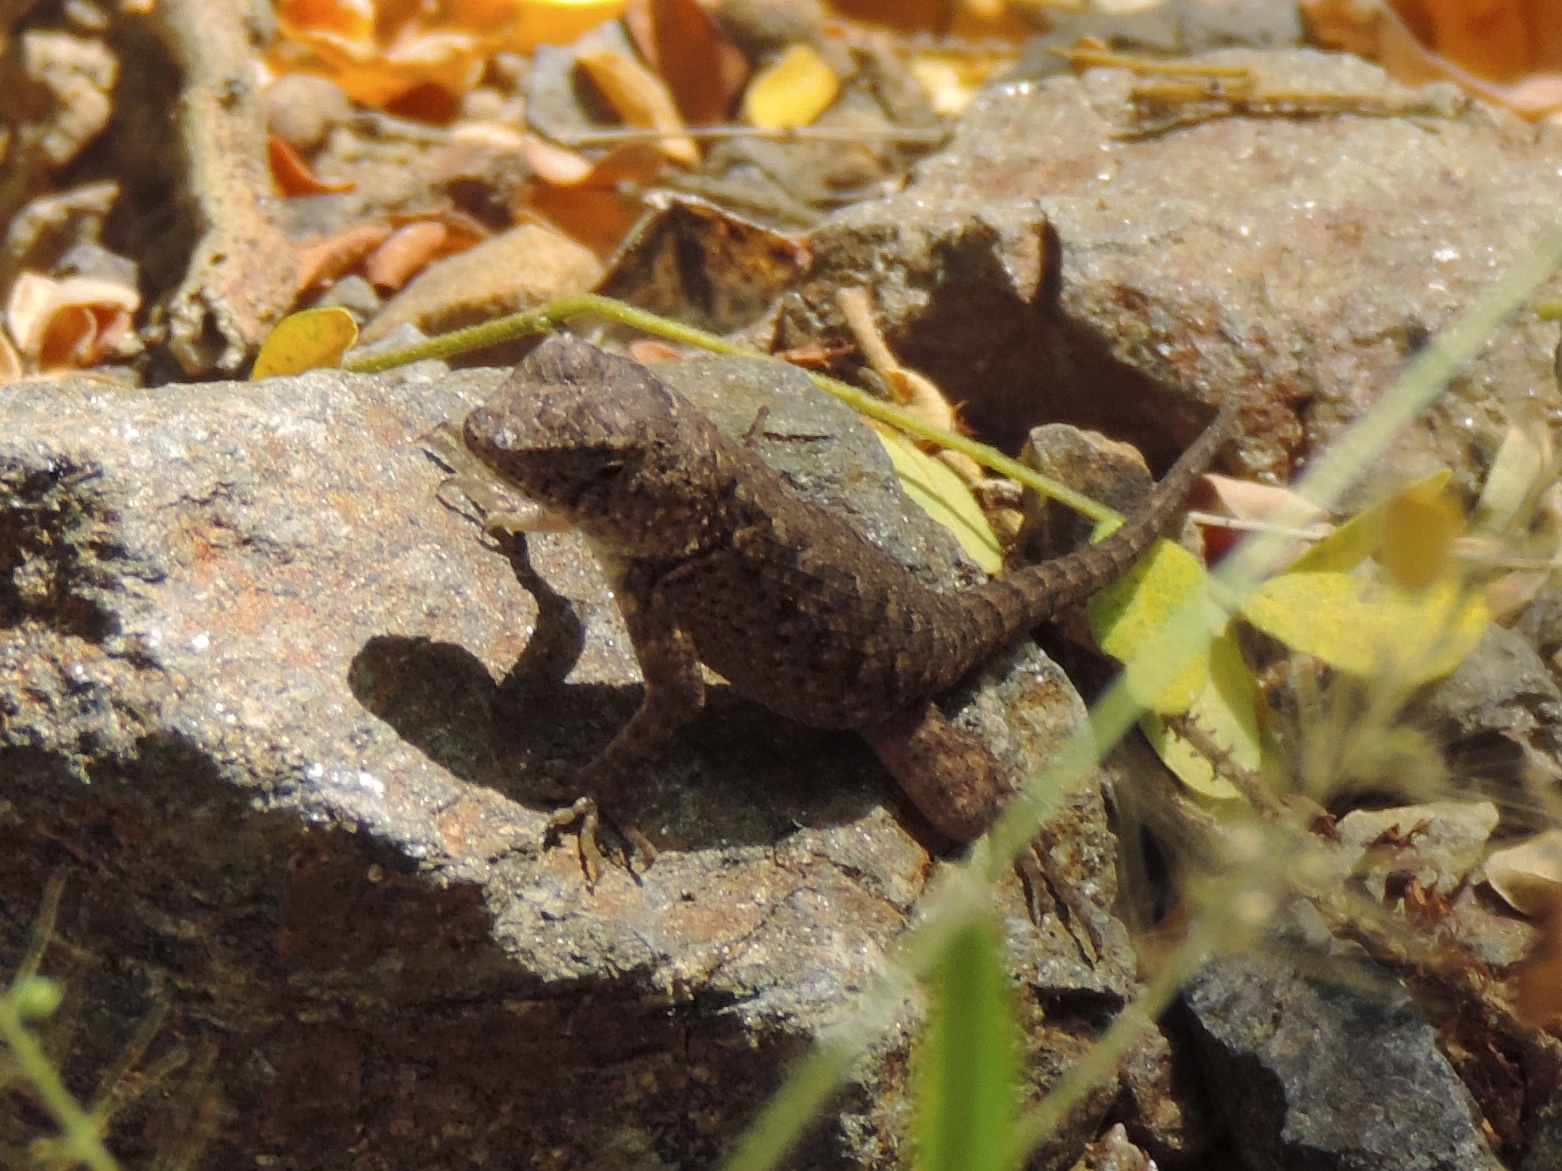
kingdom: Animalia
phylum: Chordata
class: Squamata
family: Phrynosomatidae
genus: Sceloporus
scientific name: Sceloporus nelsoni
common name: Nelson's spiny lizard
